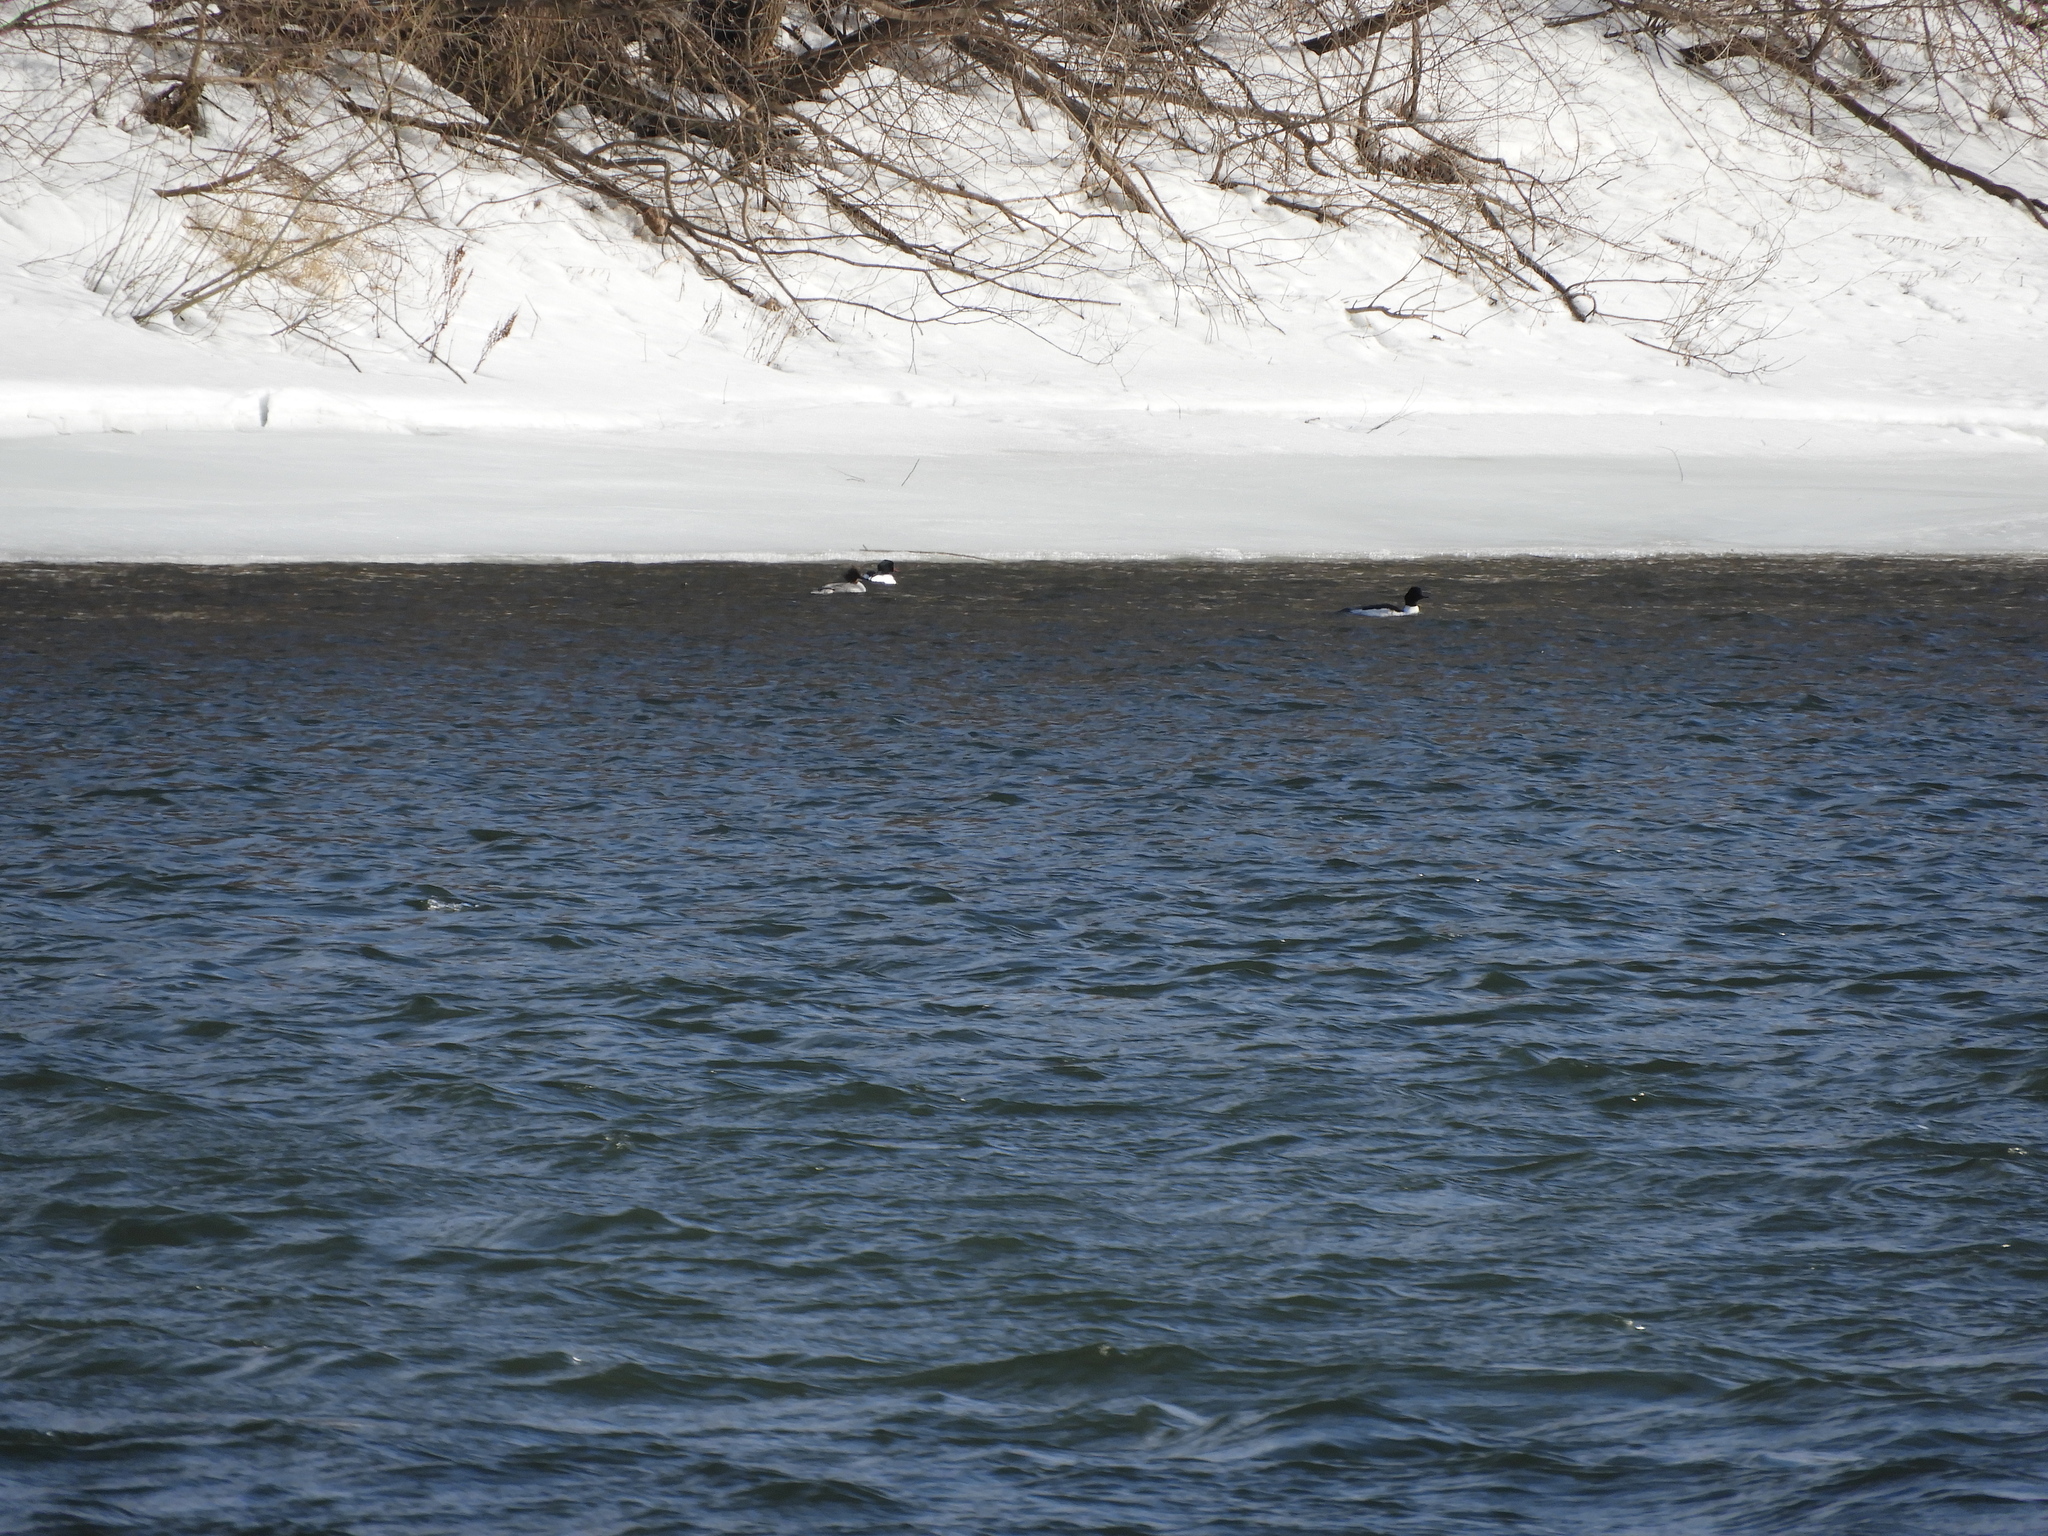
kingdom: Animalia
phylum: Chordata
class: Aves
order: Anseriformes
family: Anatidae
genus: Mergus
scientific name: Mergus merganser
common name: Common merganser
